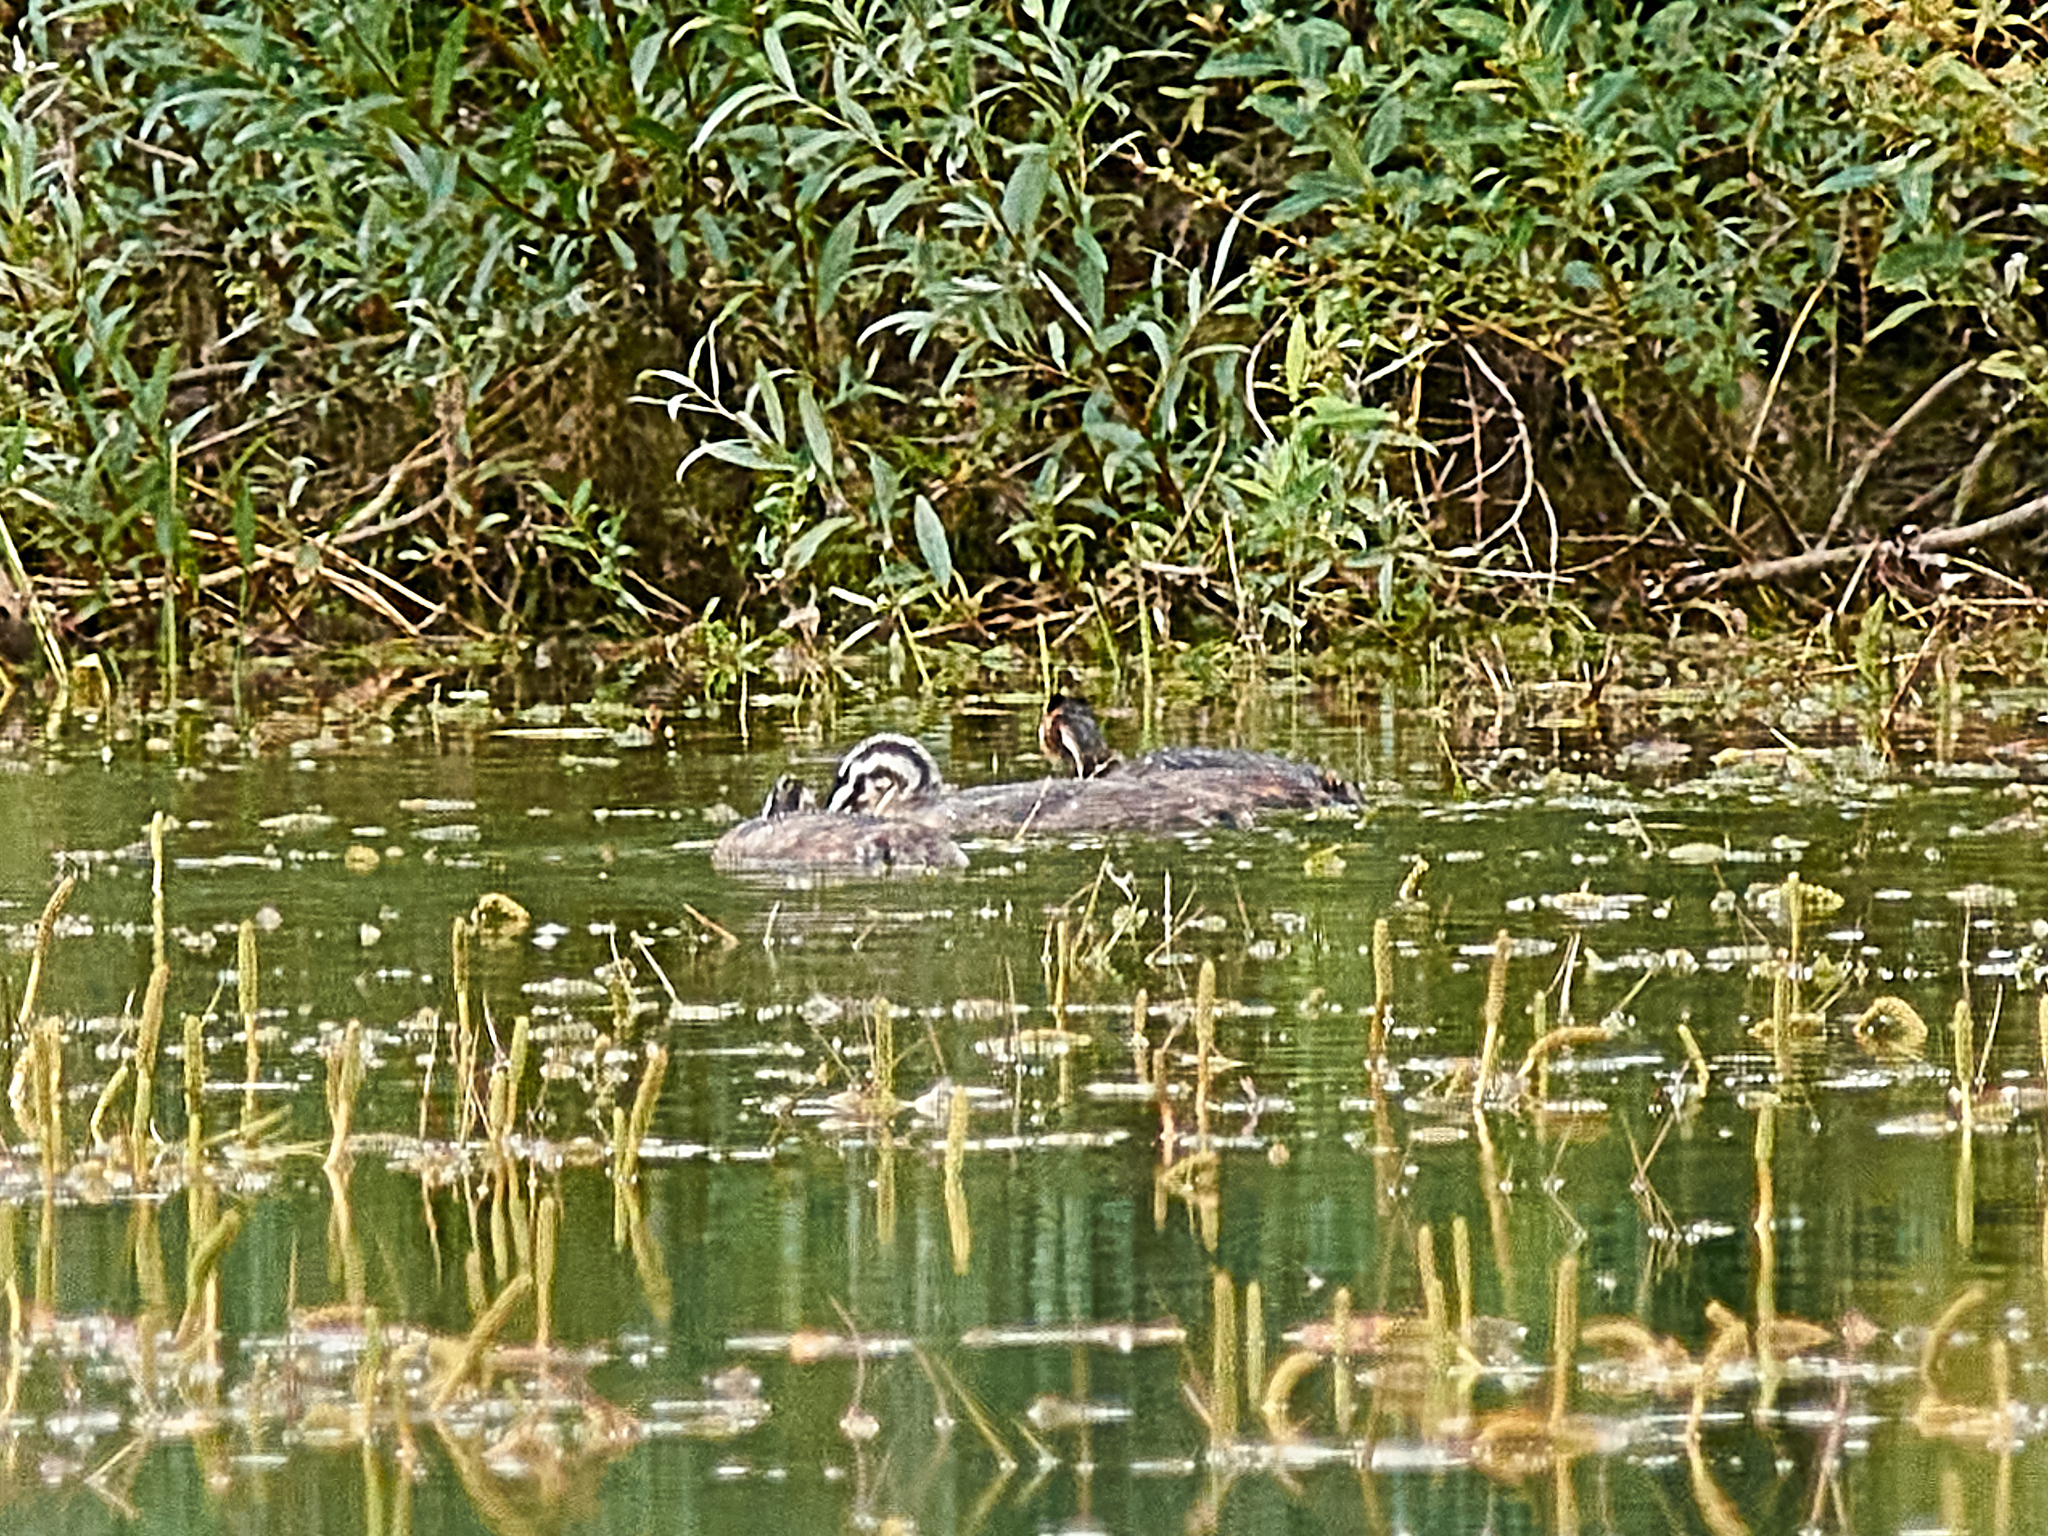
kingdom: Animalia
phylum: Chordata
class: Aves
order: Podicipediformes
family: Podicipedidae
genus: Podiceps
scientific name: Podiceps cristatus
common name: Great crested grebe
